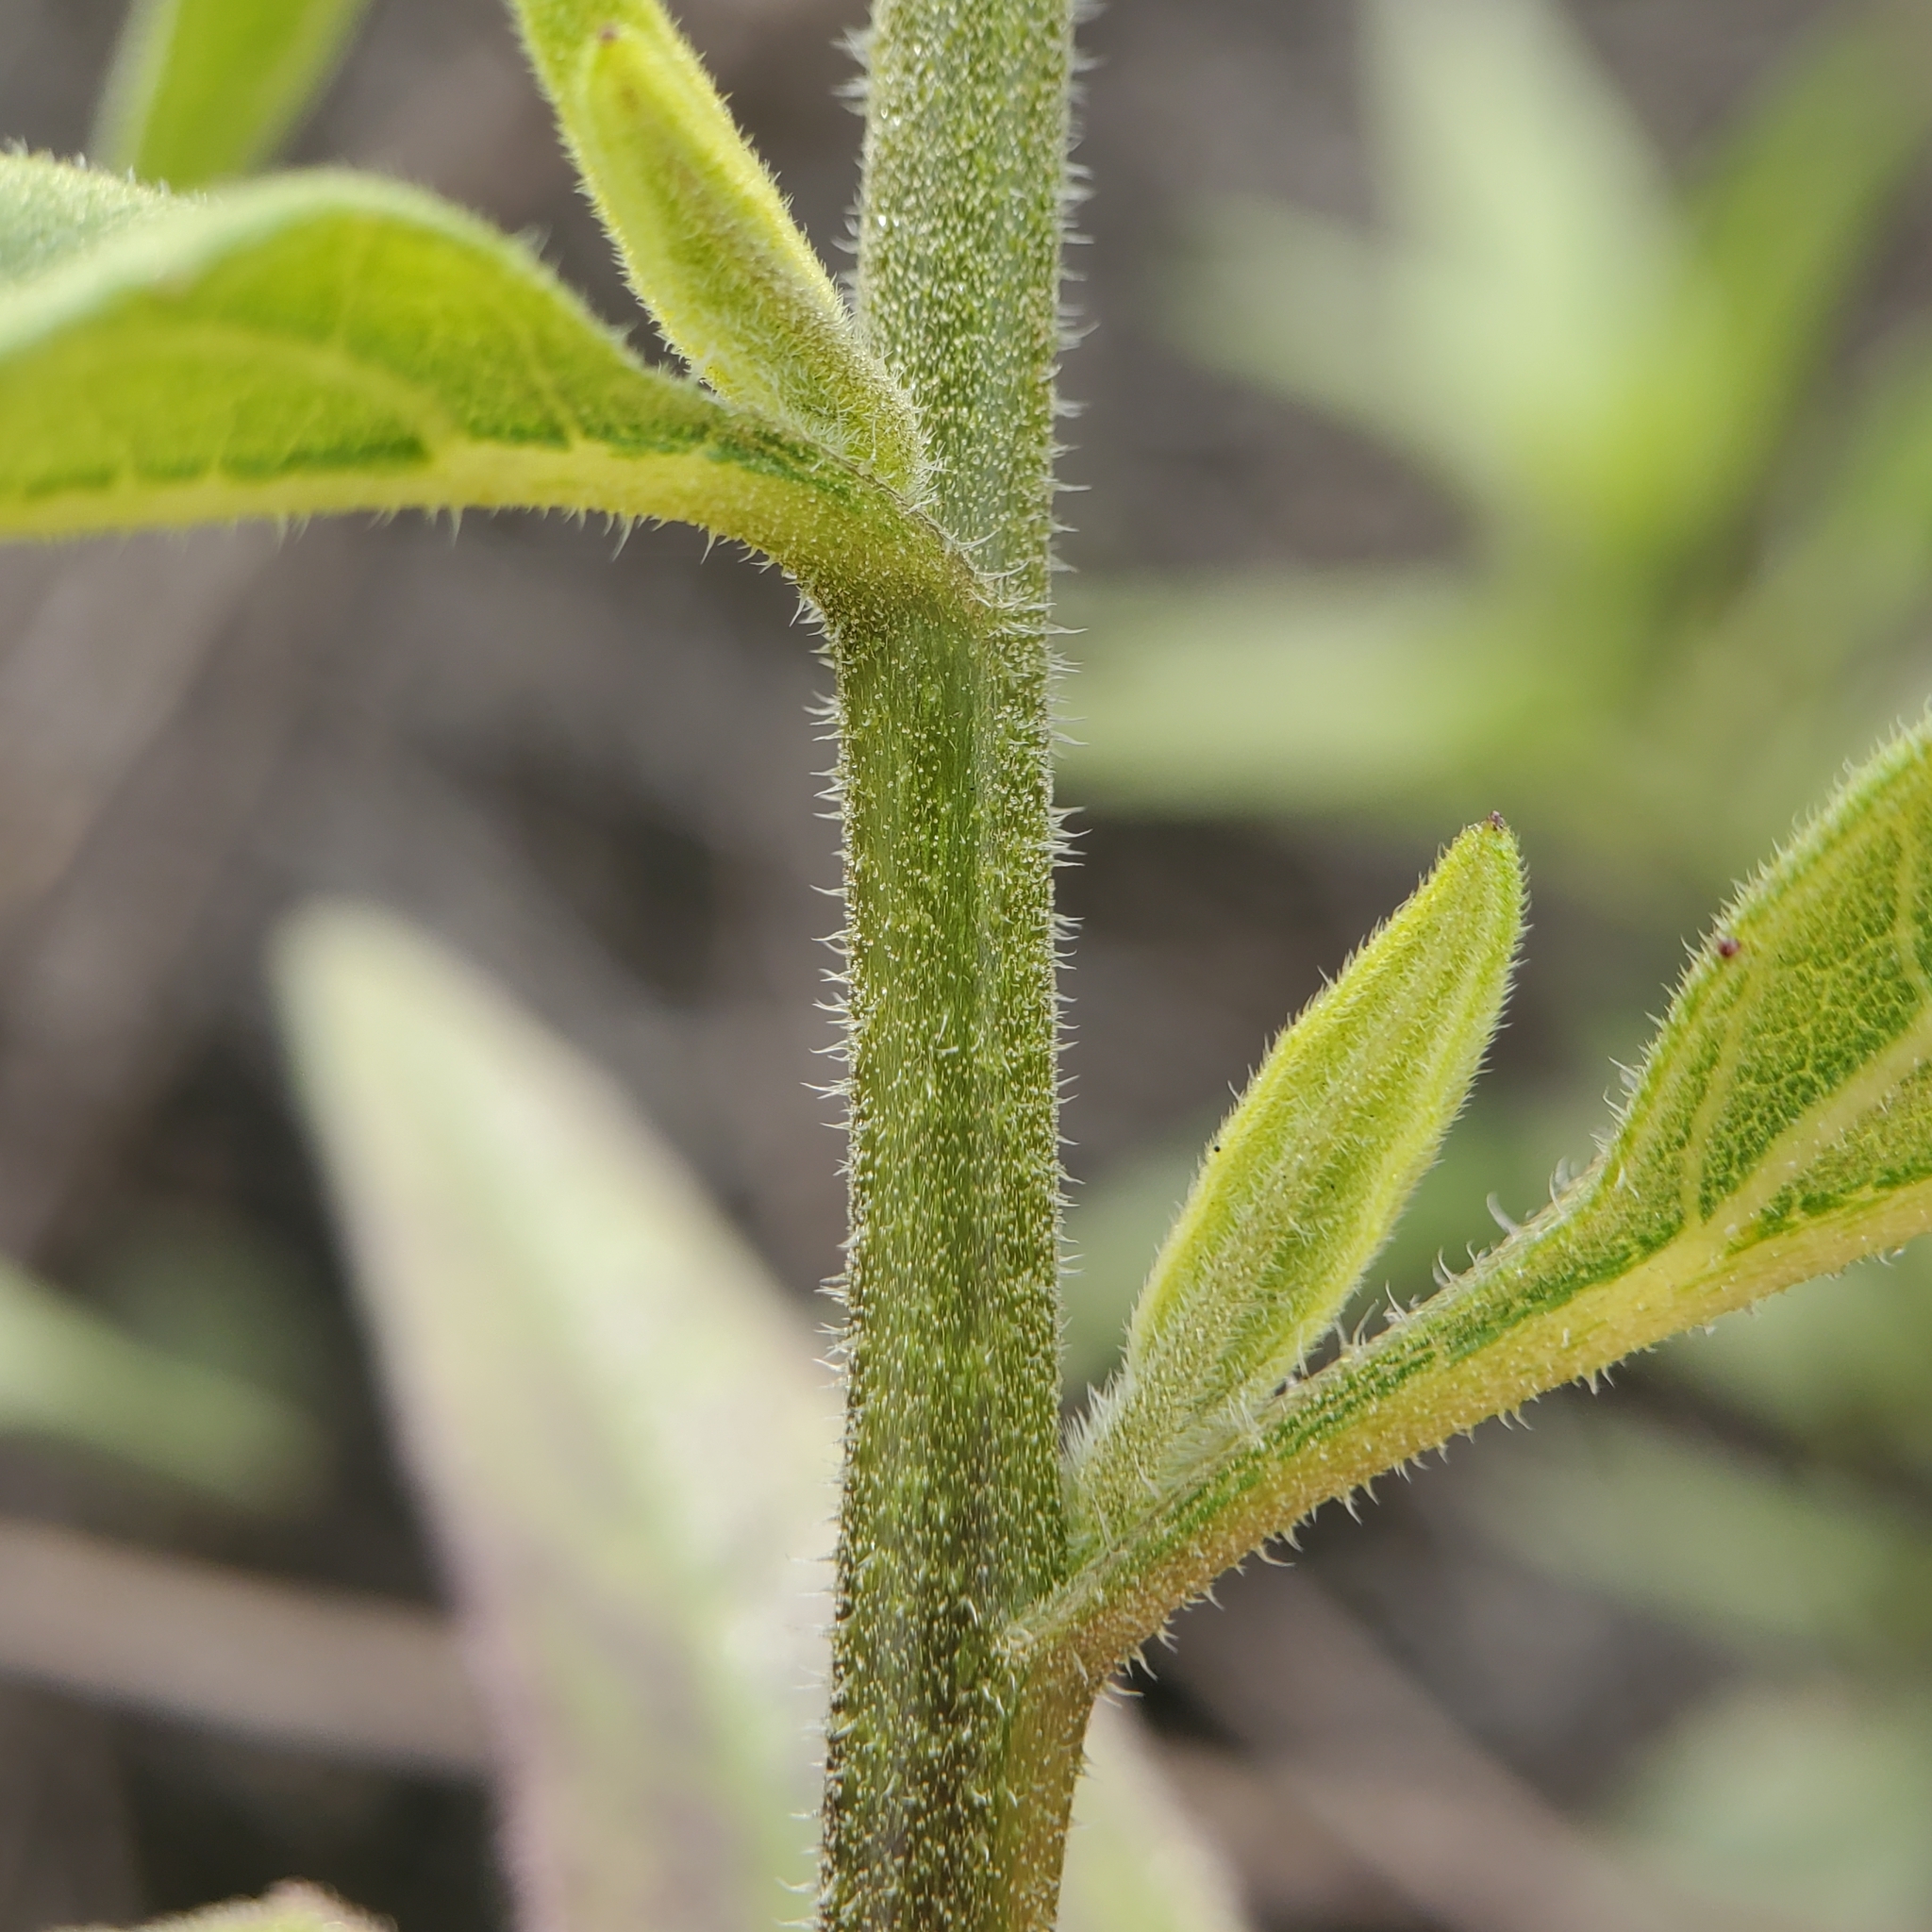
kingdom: Plantae
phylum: Tracheophyta
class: Magnoliopsida
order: Asterales
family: Asteraceae
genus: Helianthus
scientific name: Helianthus gracilentus
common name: Slender sunflower
